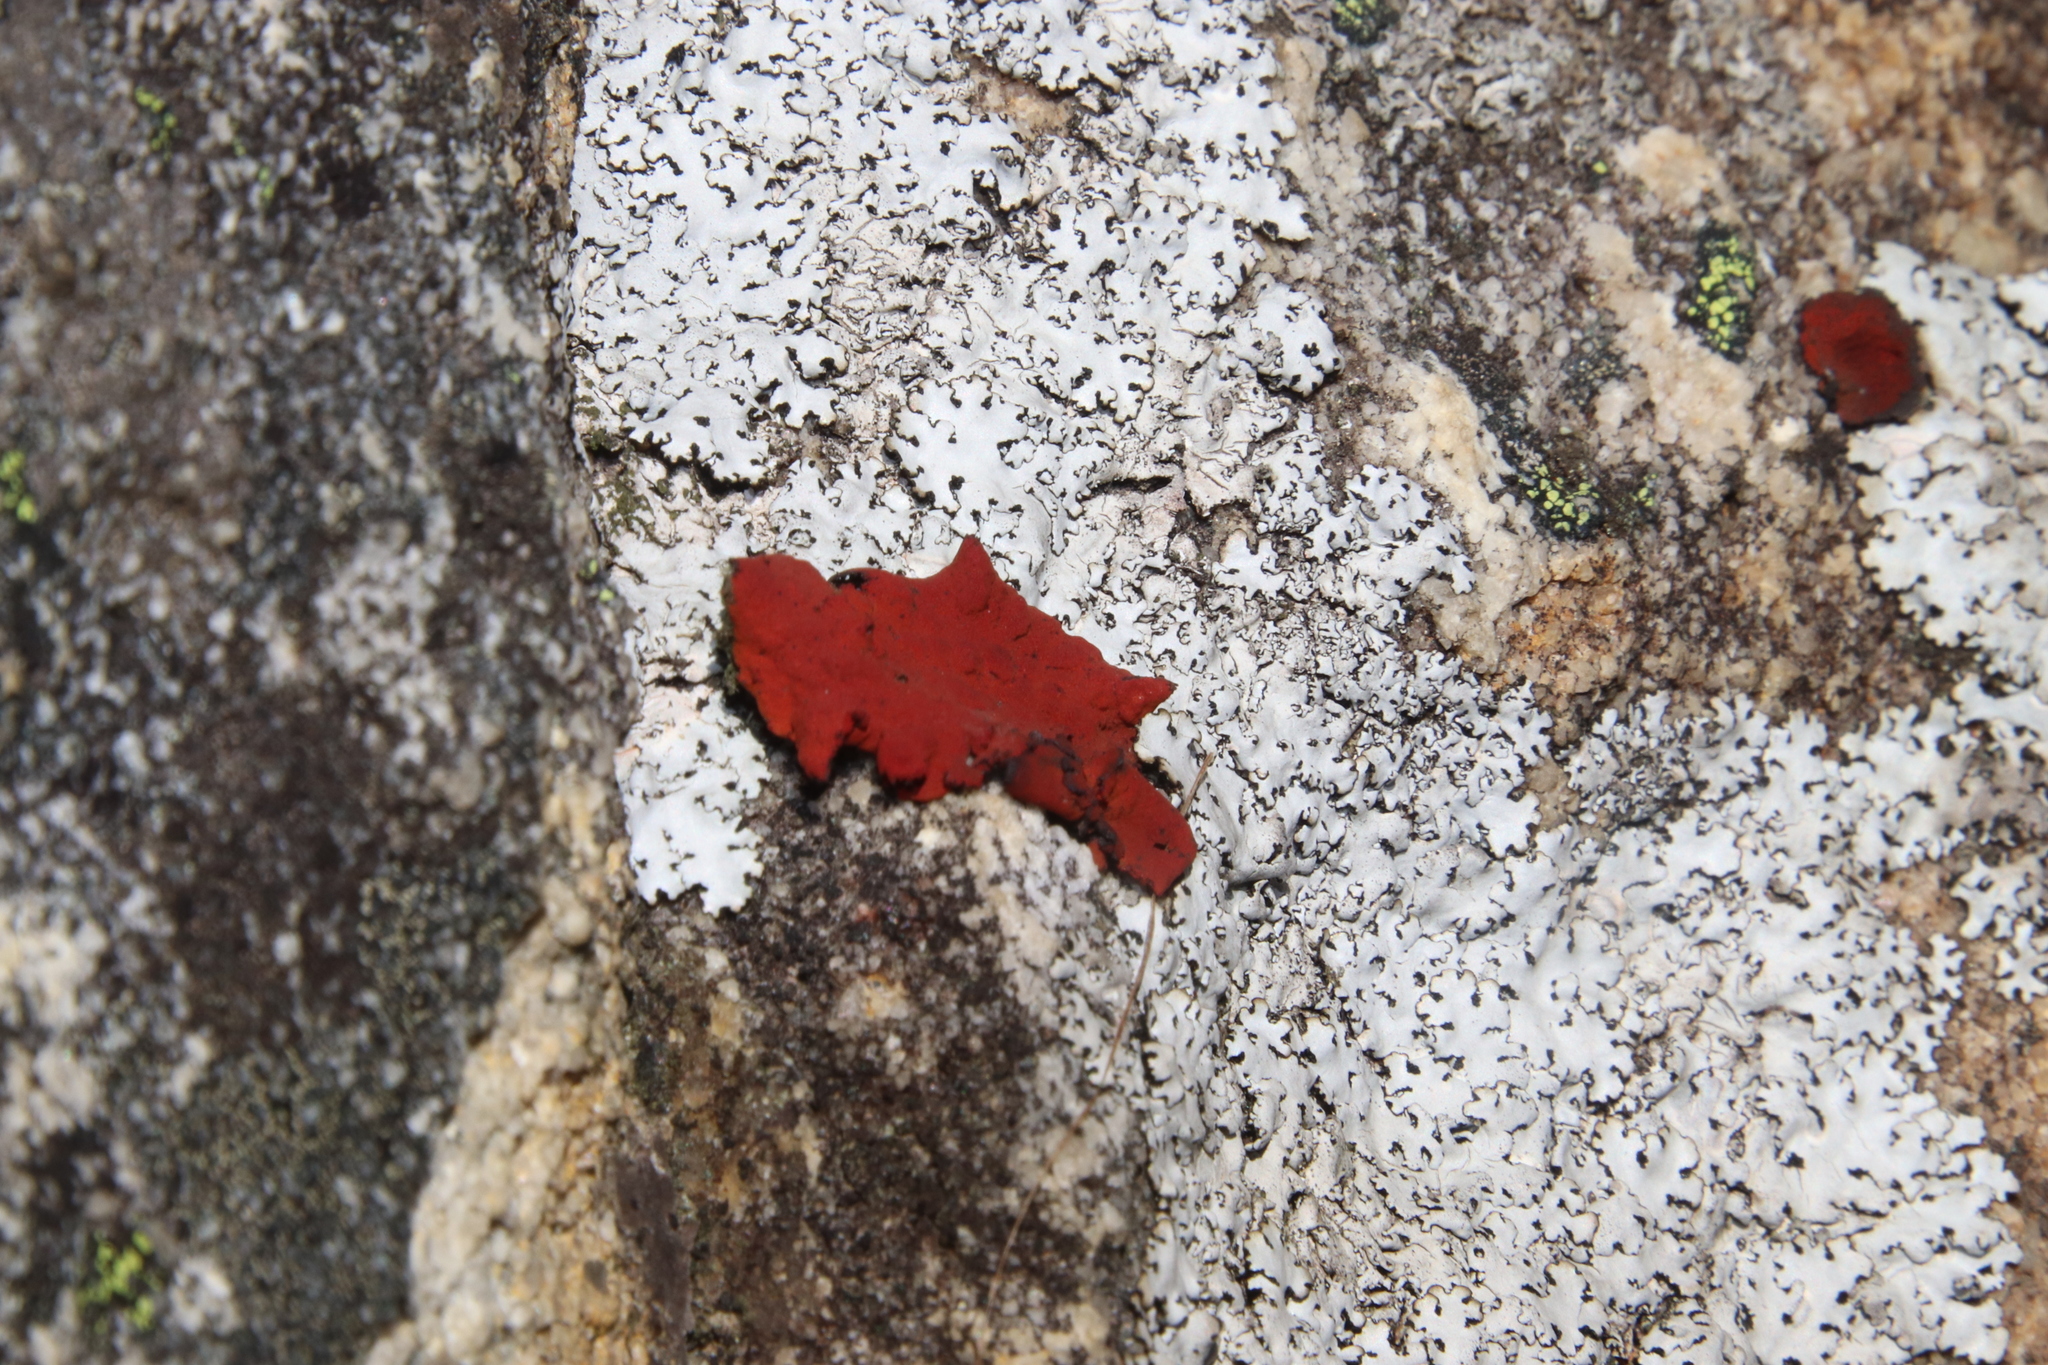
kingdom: Fungi
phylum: Ascomycota
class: Lecanoromycetes
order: Umbilicariales
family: Umbilicariaceae
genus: Lasallia
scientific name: Lasallia rubiginosa
